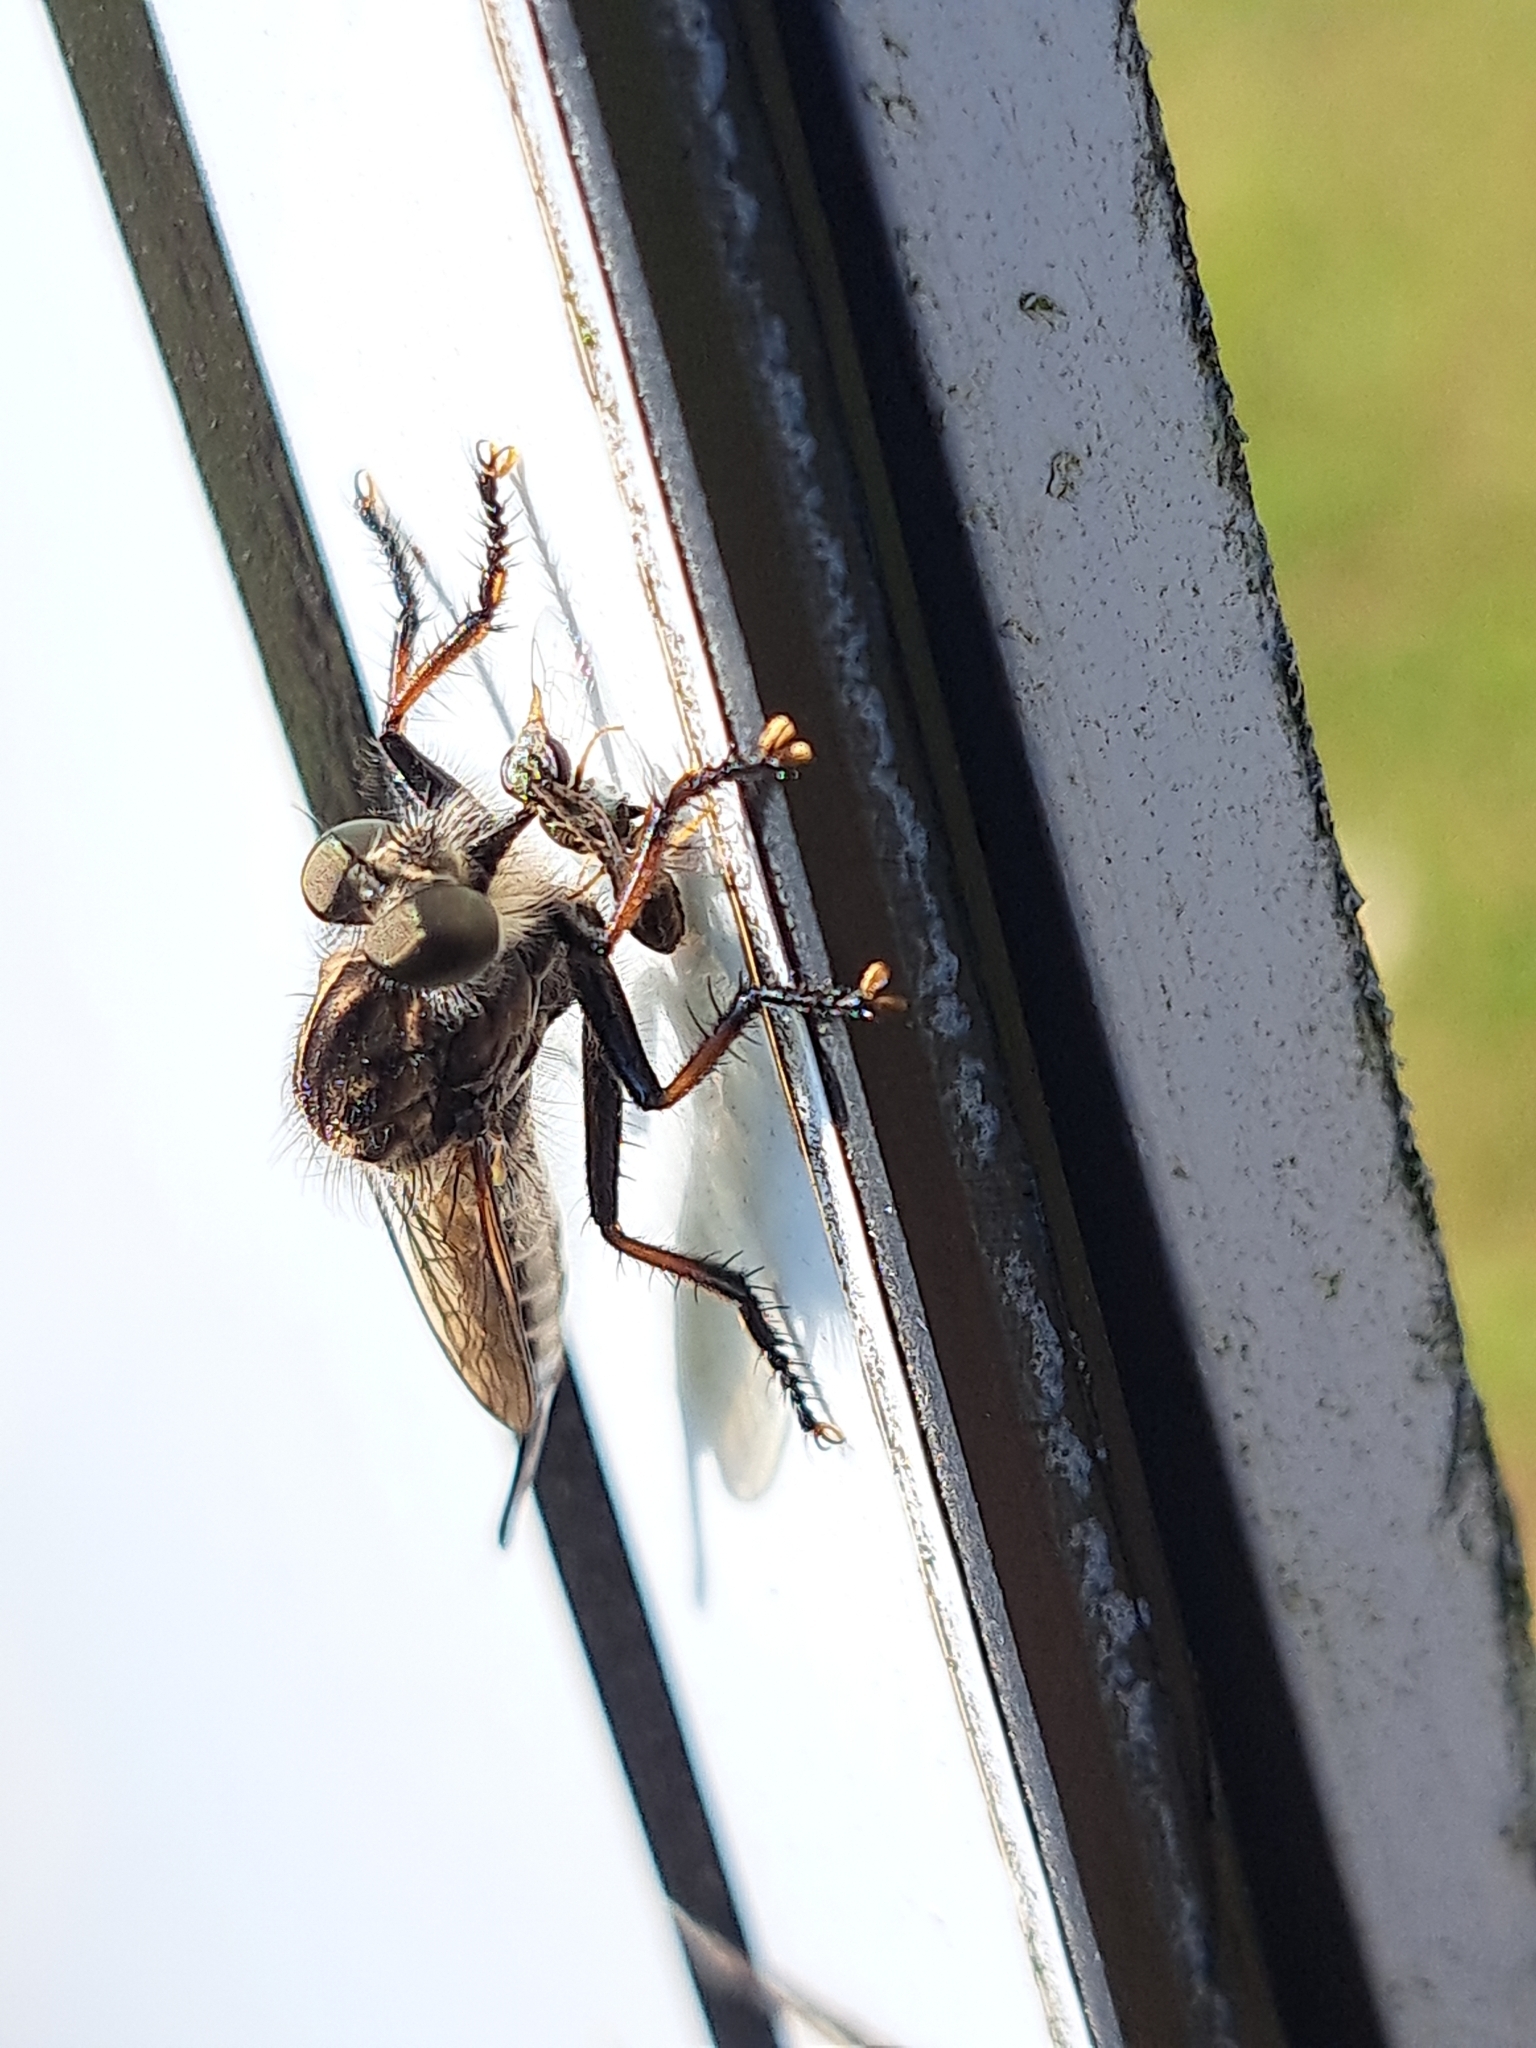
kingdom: Animalia
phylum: Arthropoda
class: Insecta
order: Diptera
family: Asilidae
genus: Efferia
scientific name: Efferia aestuans
